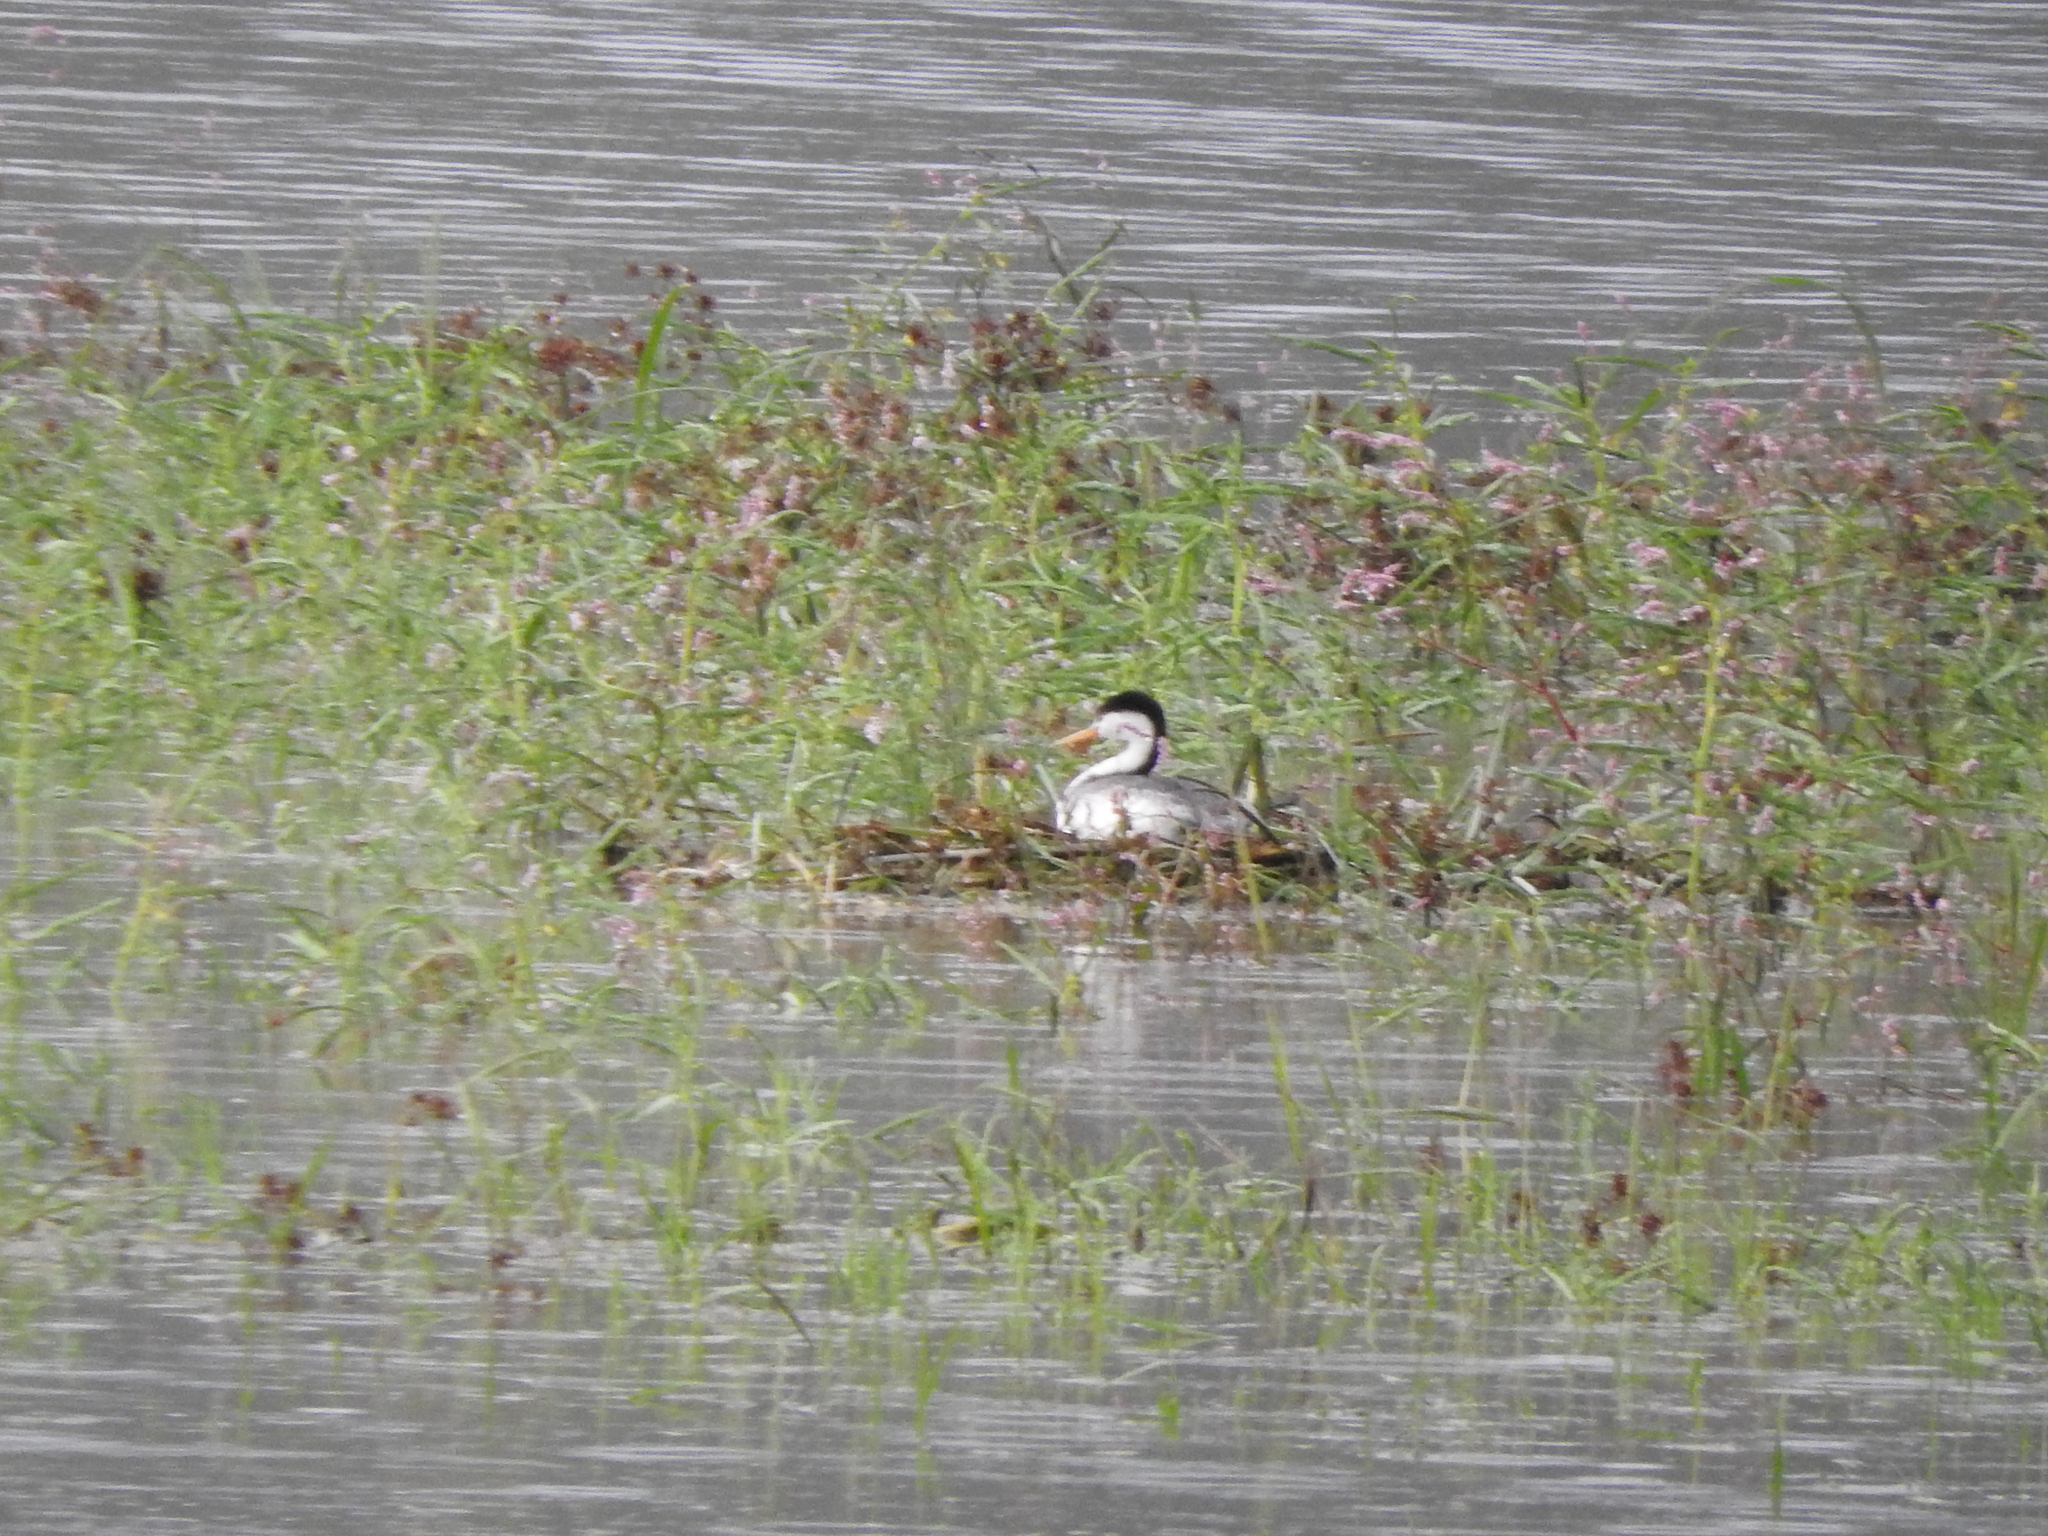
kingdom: Animalia
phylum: Chordata
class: Aves
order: Podicipediformes
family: Podicipedidae
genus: Aechmophorus
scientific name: Aechmophorus clarkii
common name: Clark's grebe
